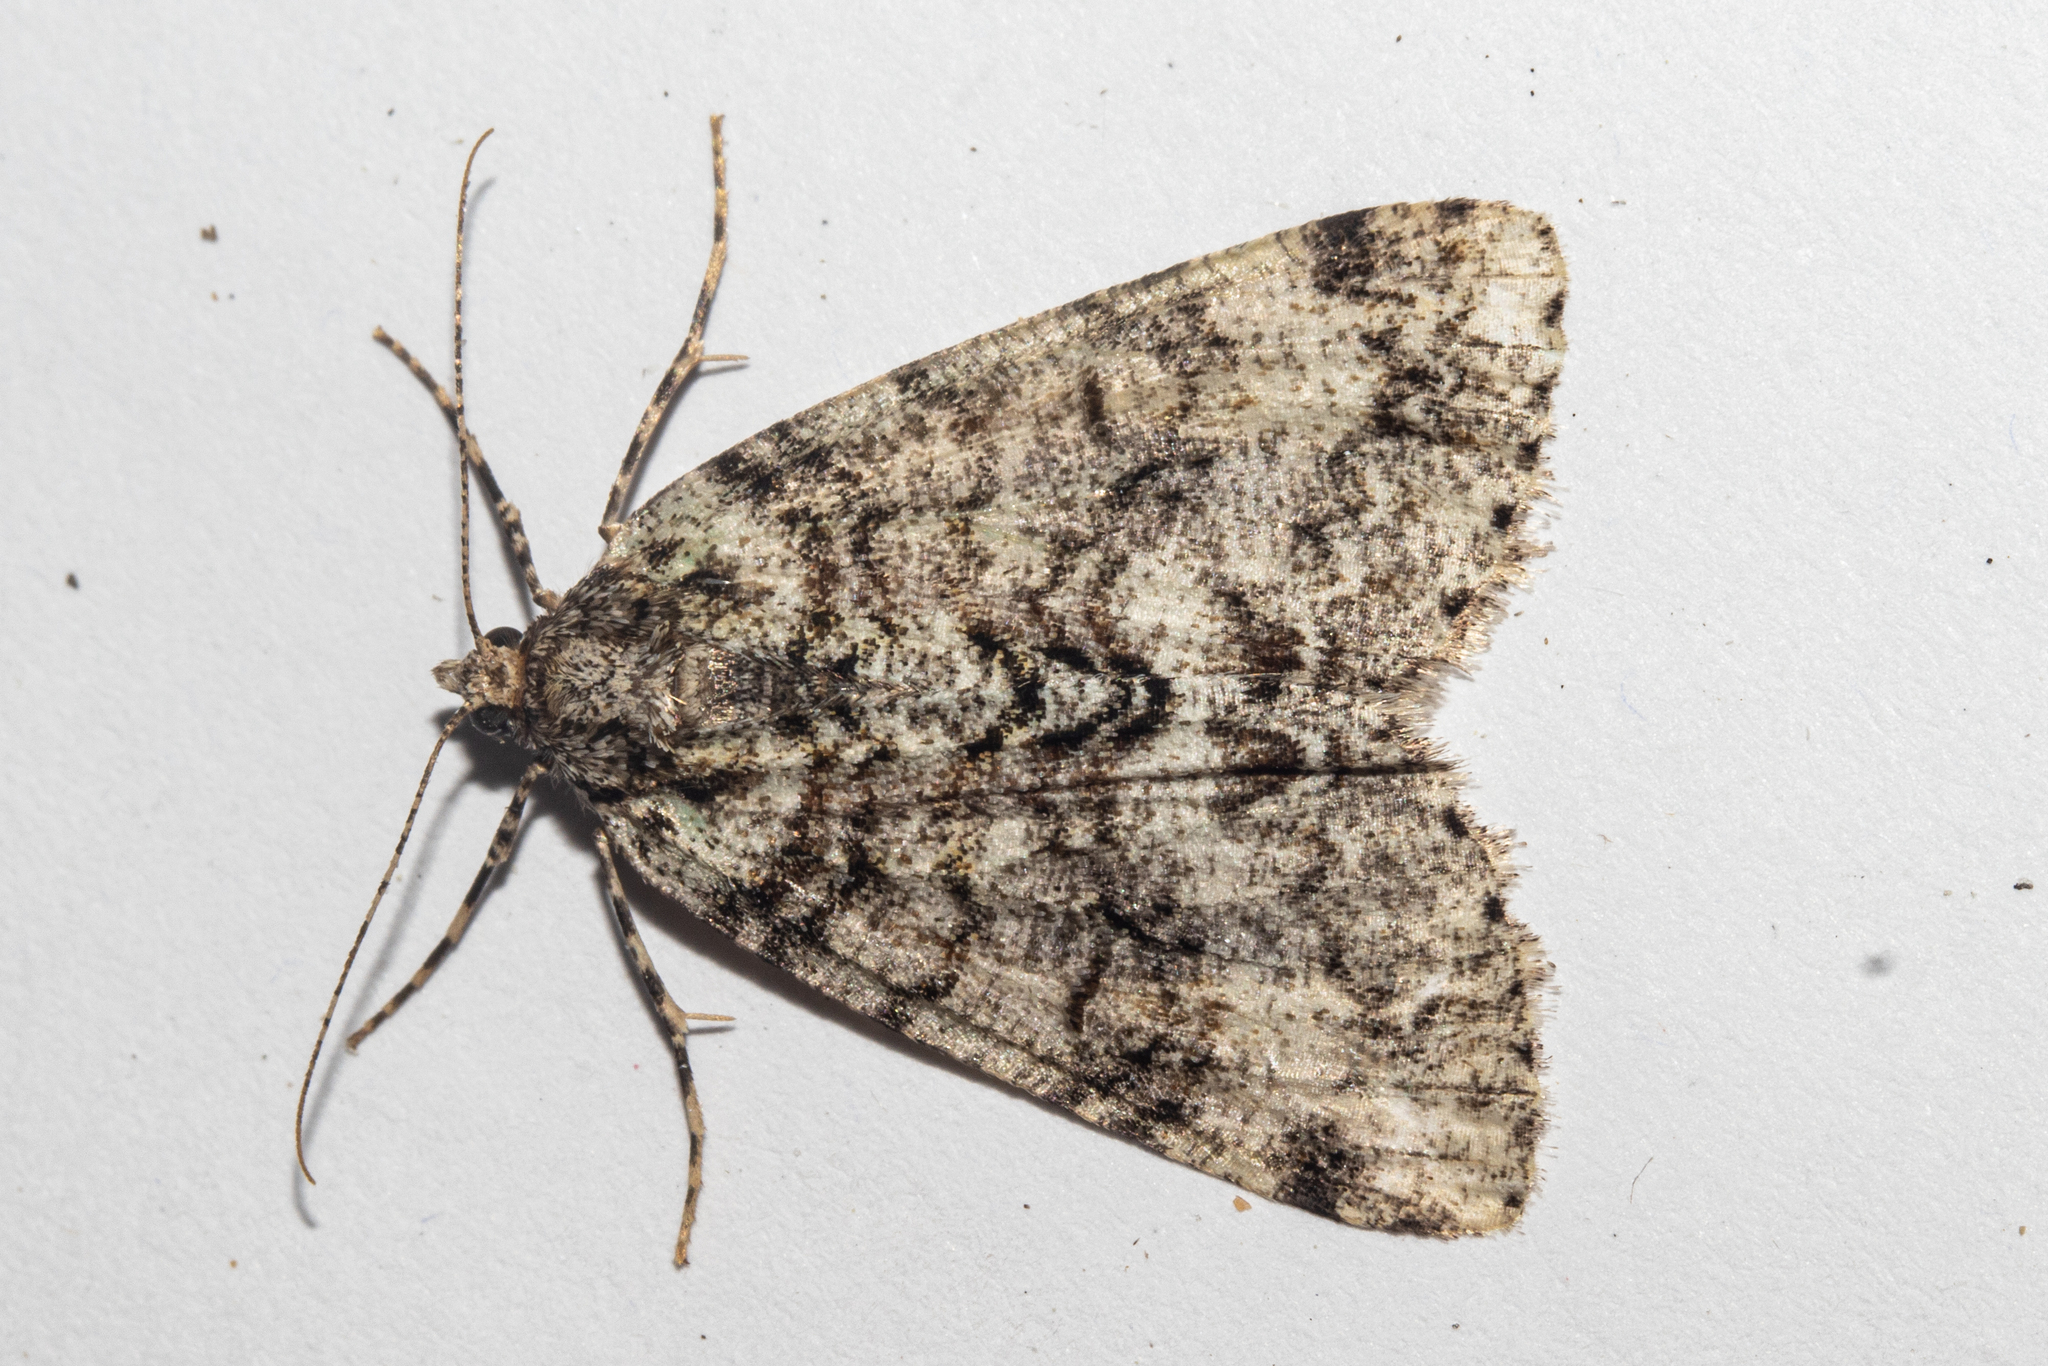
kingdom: Animalia
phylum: Arthropoda
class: Insecta
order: Lepidoptera
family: Geometridae
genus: Pseudocoremia
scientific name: Pseudocoremia suavis
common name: Common forest looper
